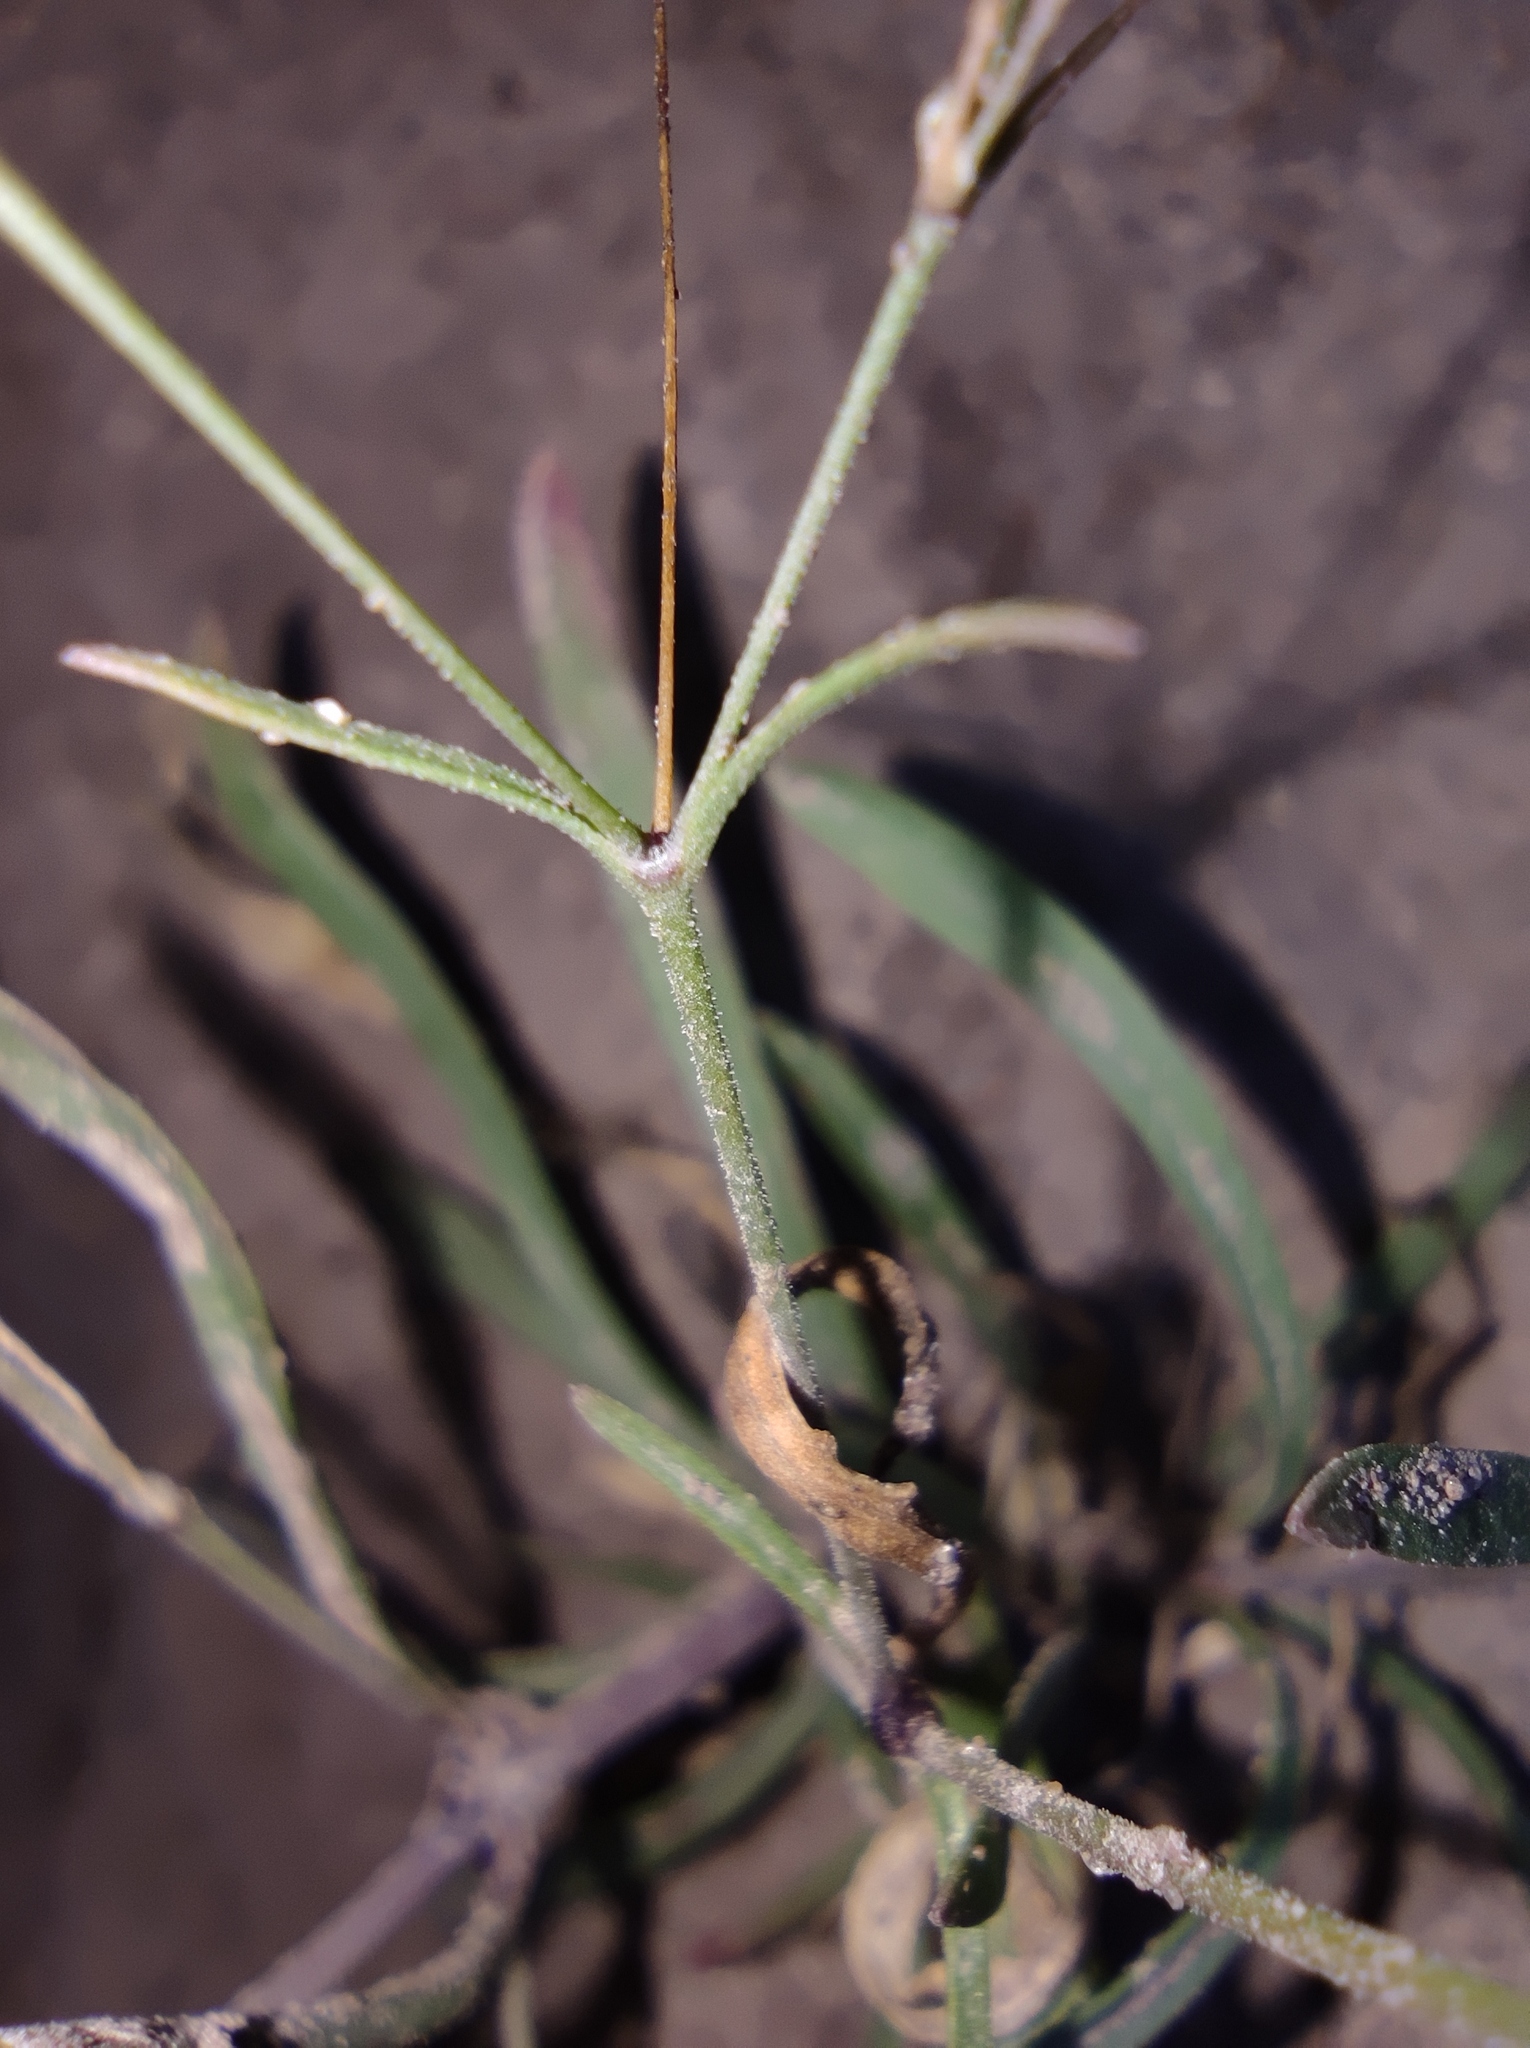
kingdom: Plantae
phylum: Tracheophyta
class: Magnoliopsida
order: Caryophyllales
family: Caryophyllaceae
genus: Psammophiliella
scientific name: Psammophiliella muralis
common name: Cushion baby's-breath
